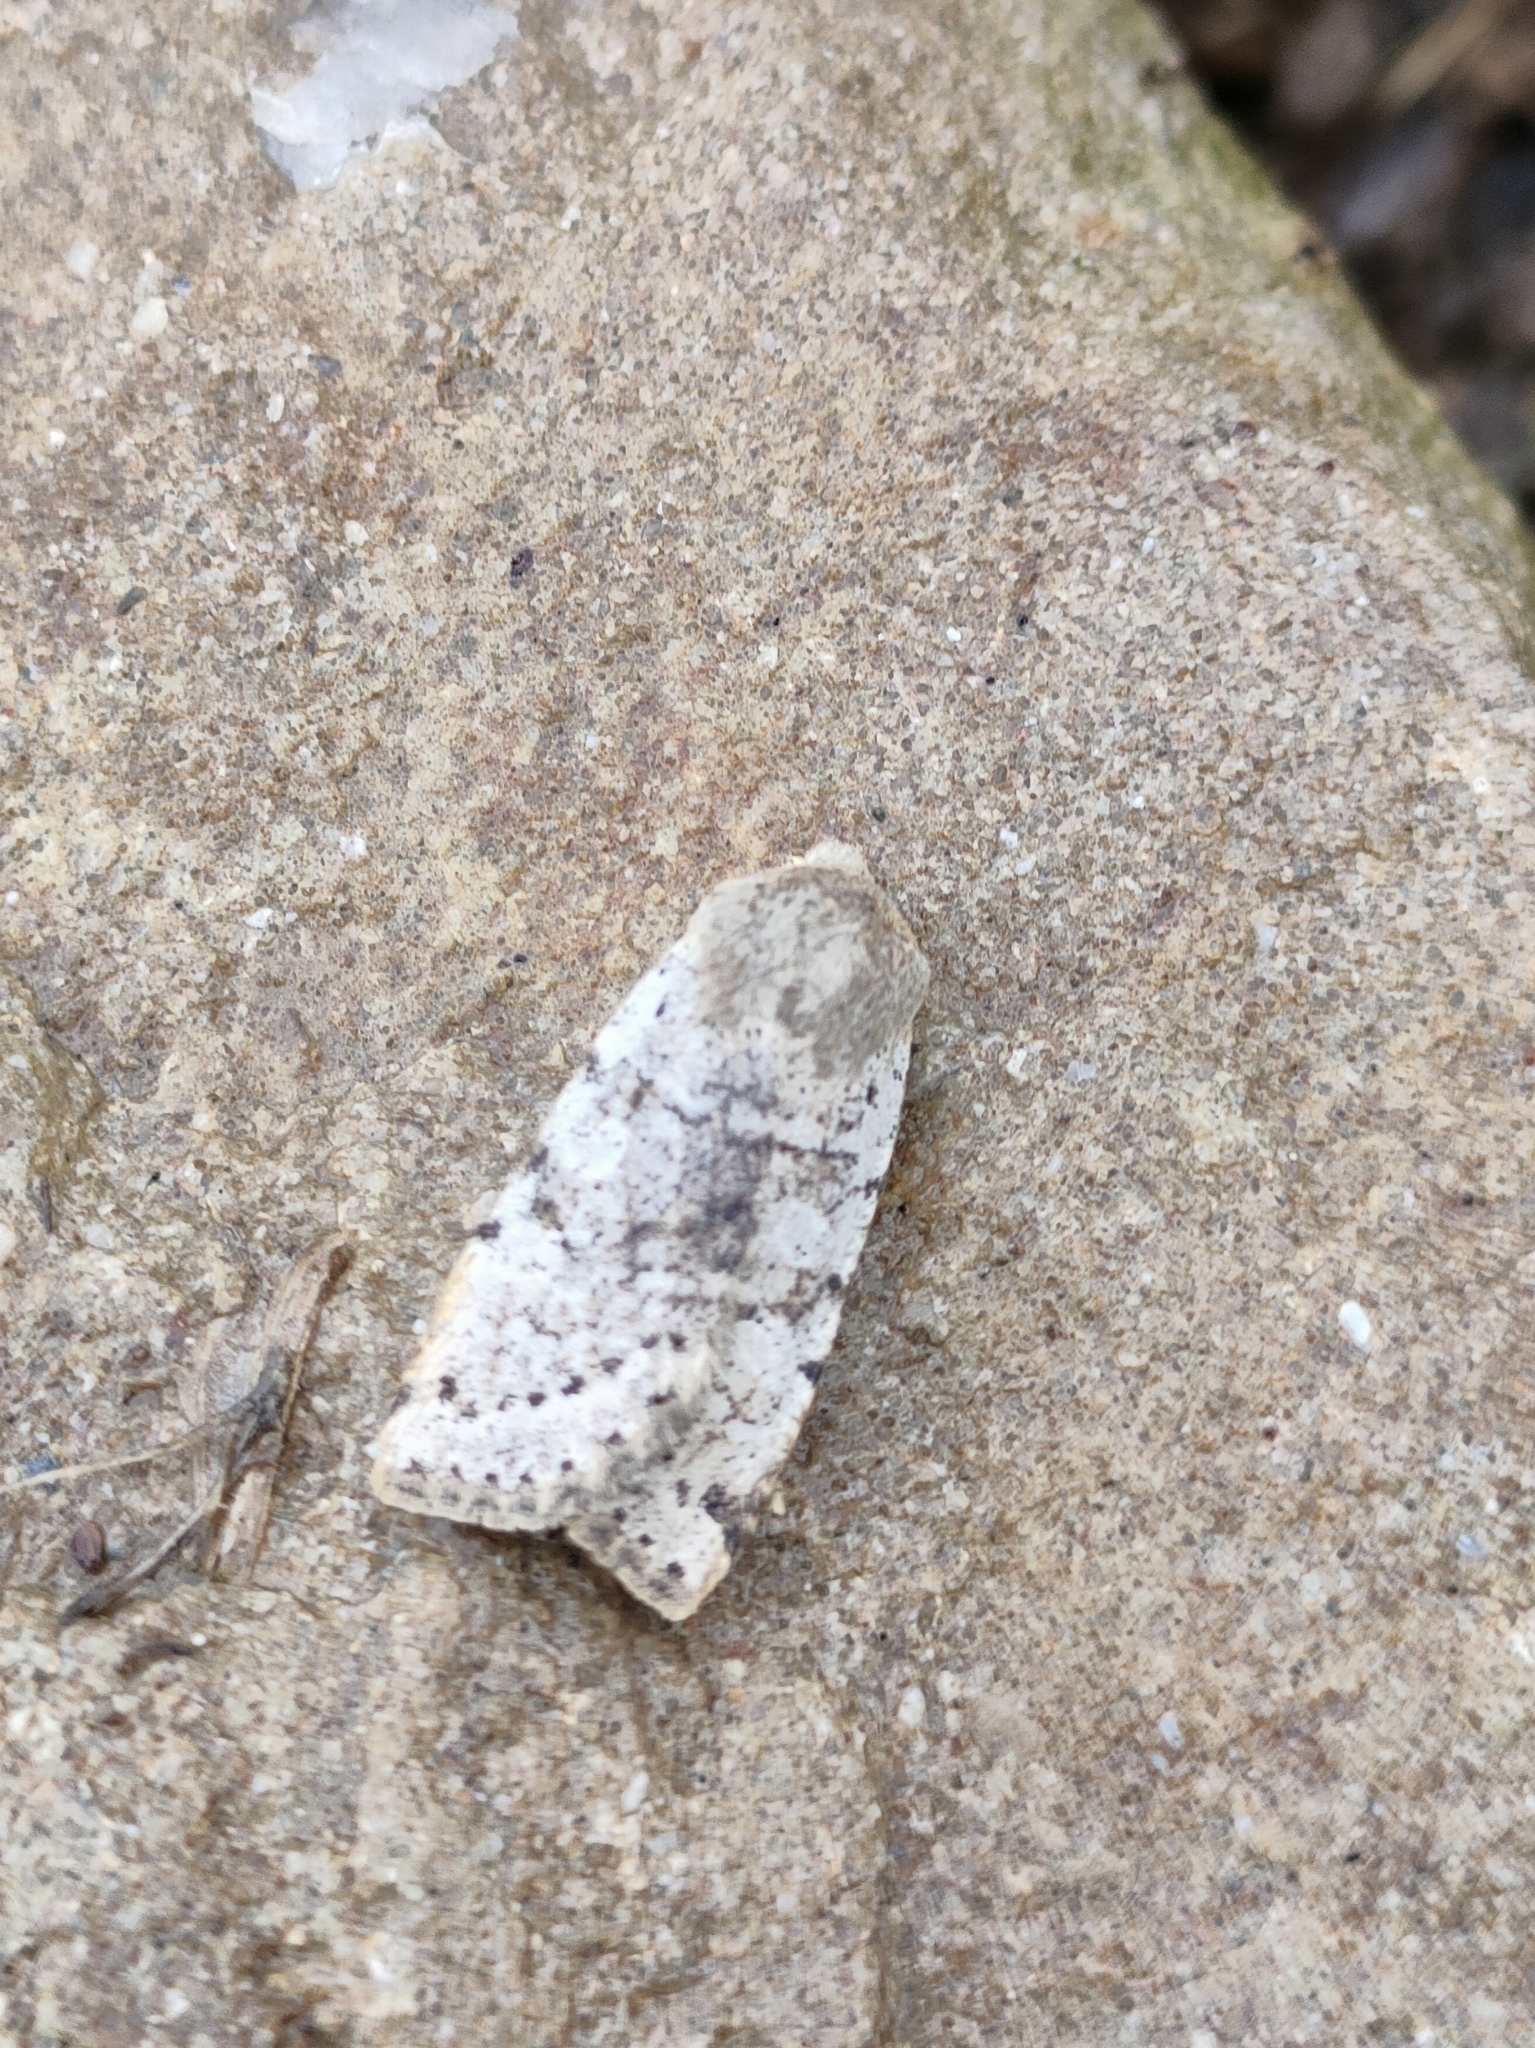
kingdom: Animalia
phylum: Arthropoda
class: Insecta
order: Lepidoptera
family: Noctuidae
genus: Conistra
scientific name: Conistra daubei
